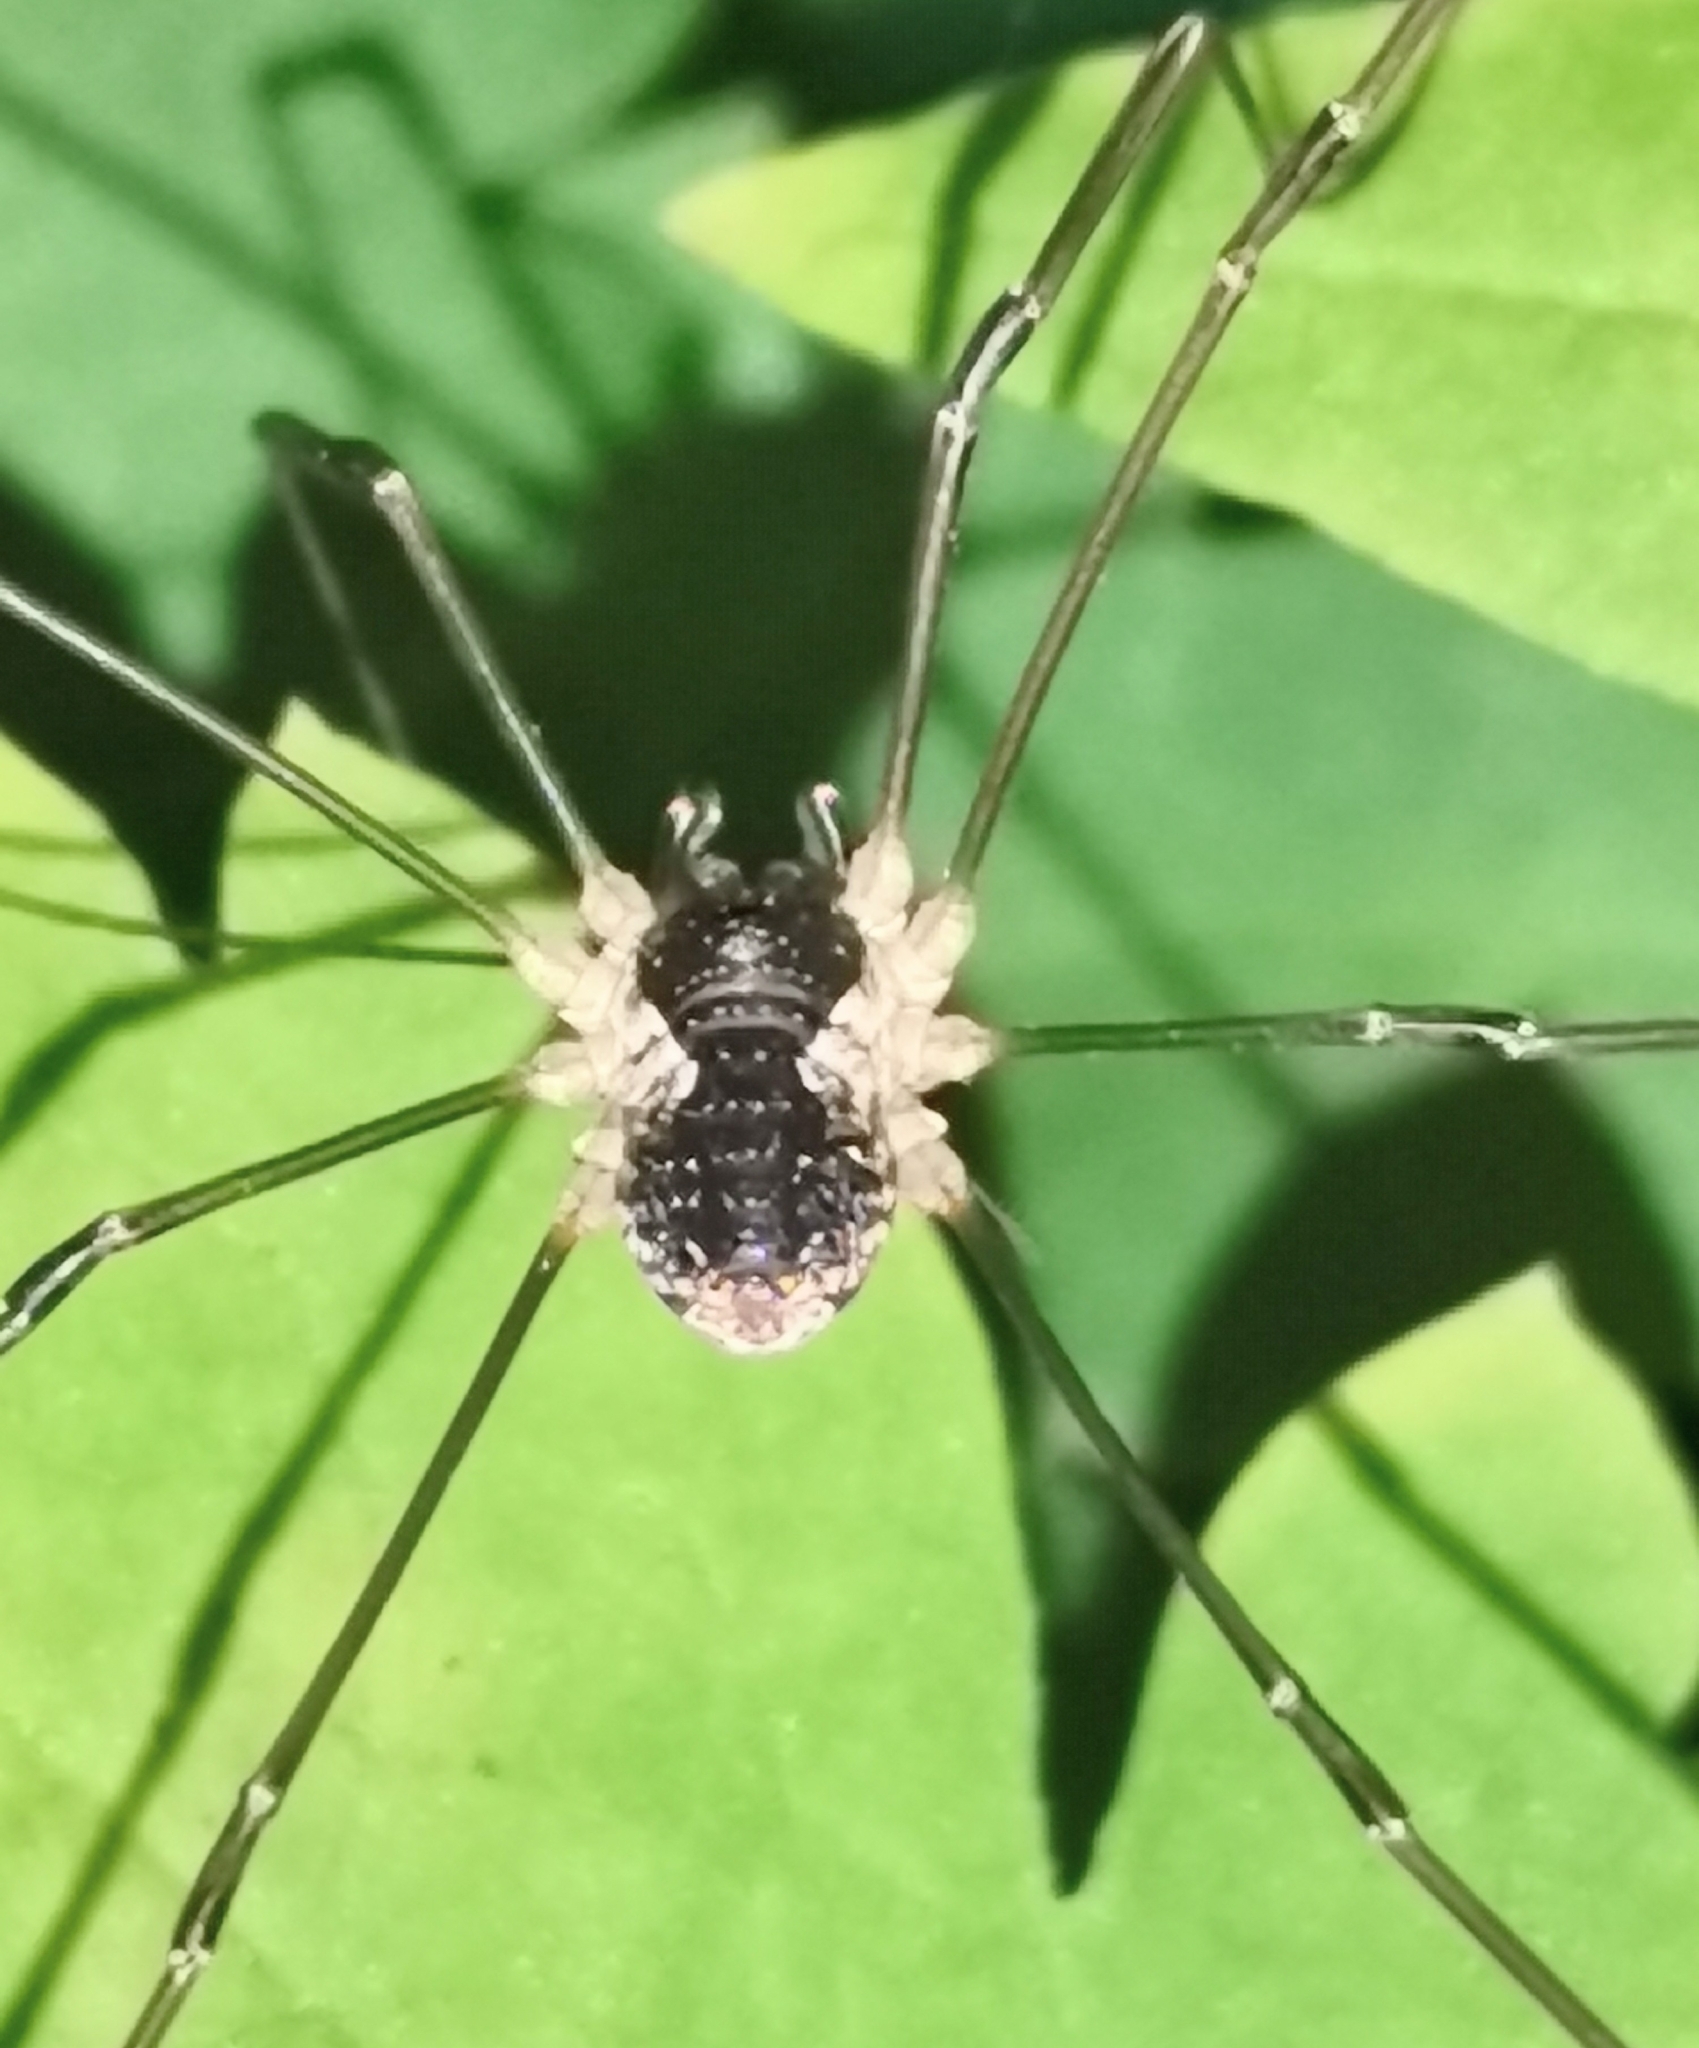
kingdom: Animalia
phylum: Arthropoda
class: Arachnida
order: Opiliones
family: Phalangiidae
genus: Mitopus
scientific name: Mitopus morio
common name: Saddleback harvestman
